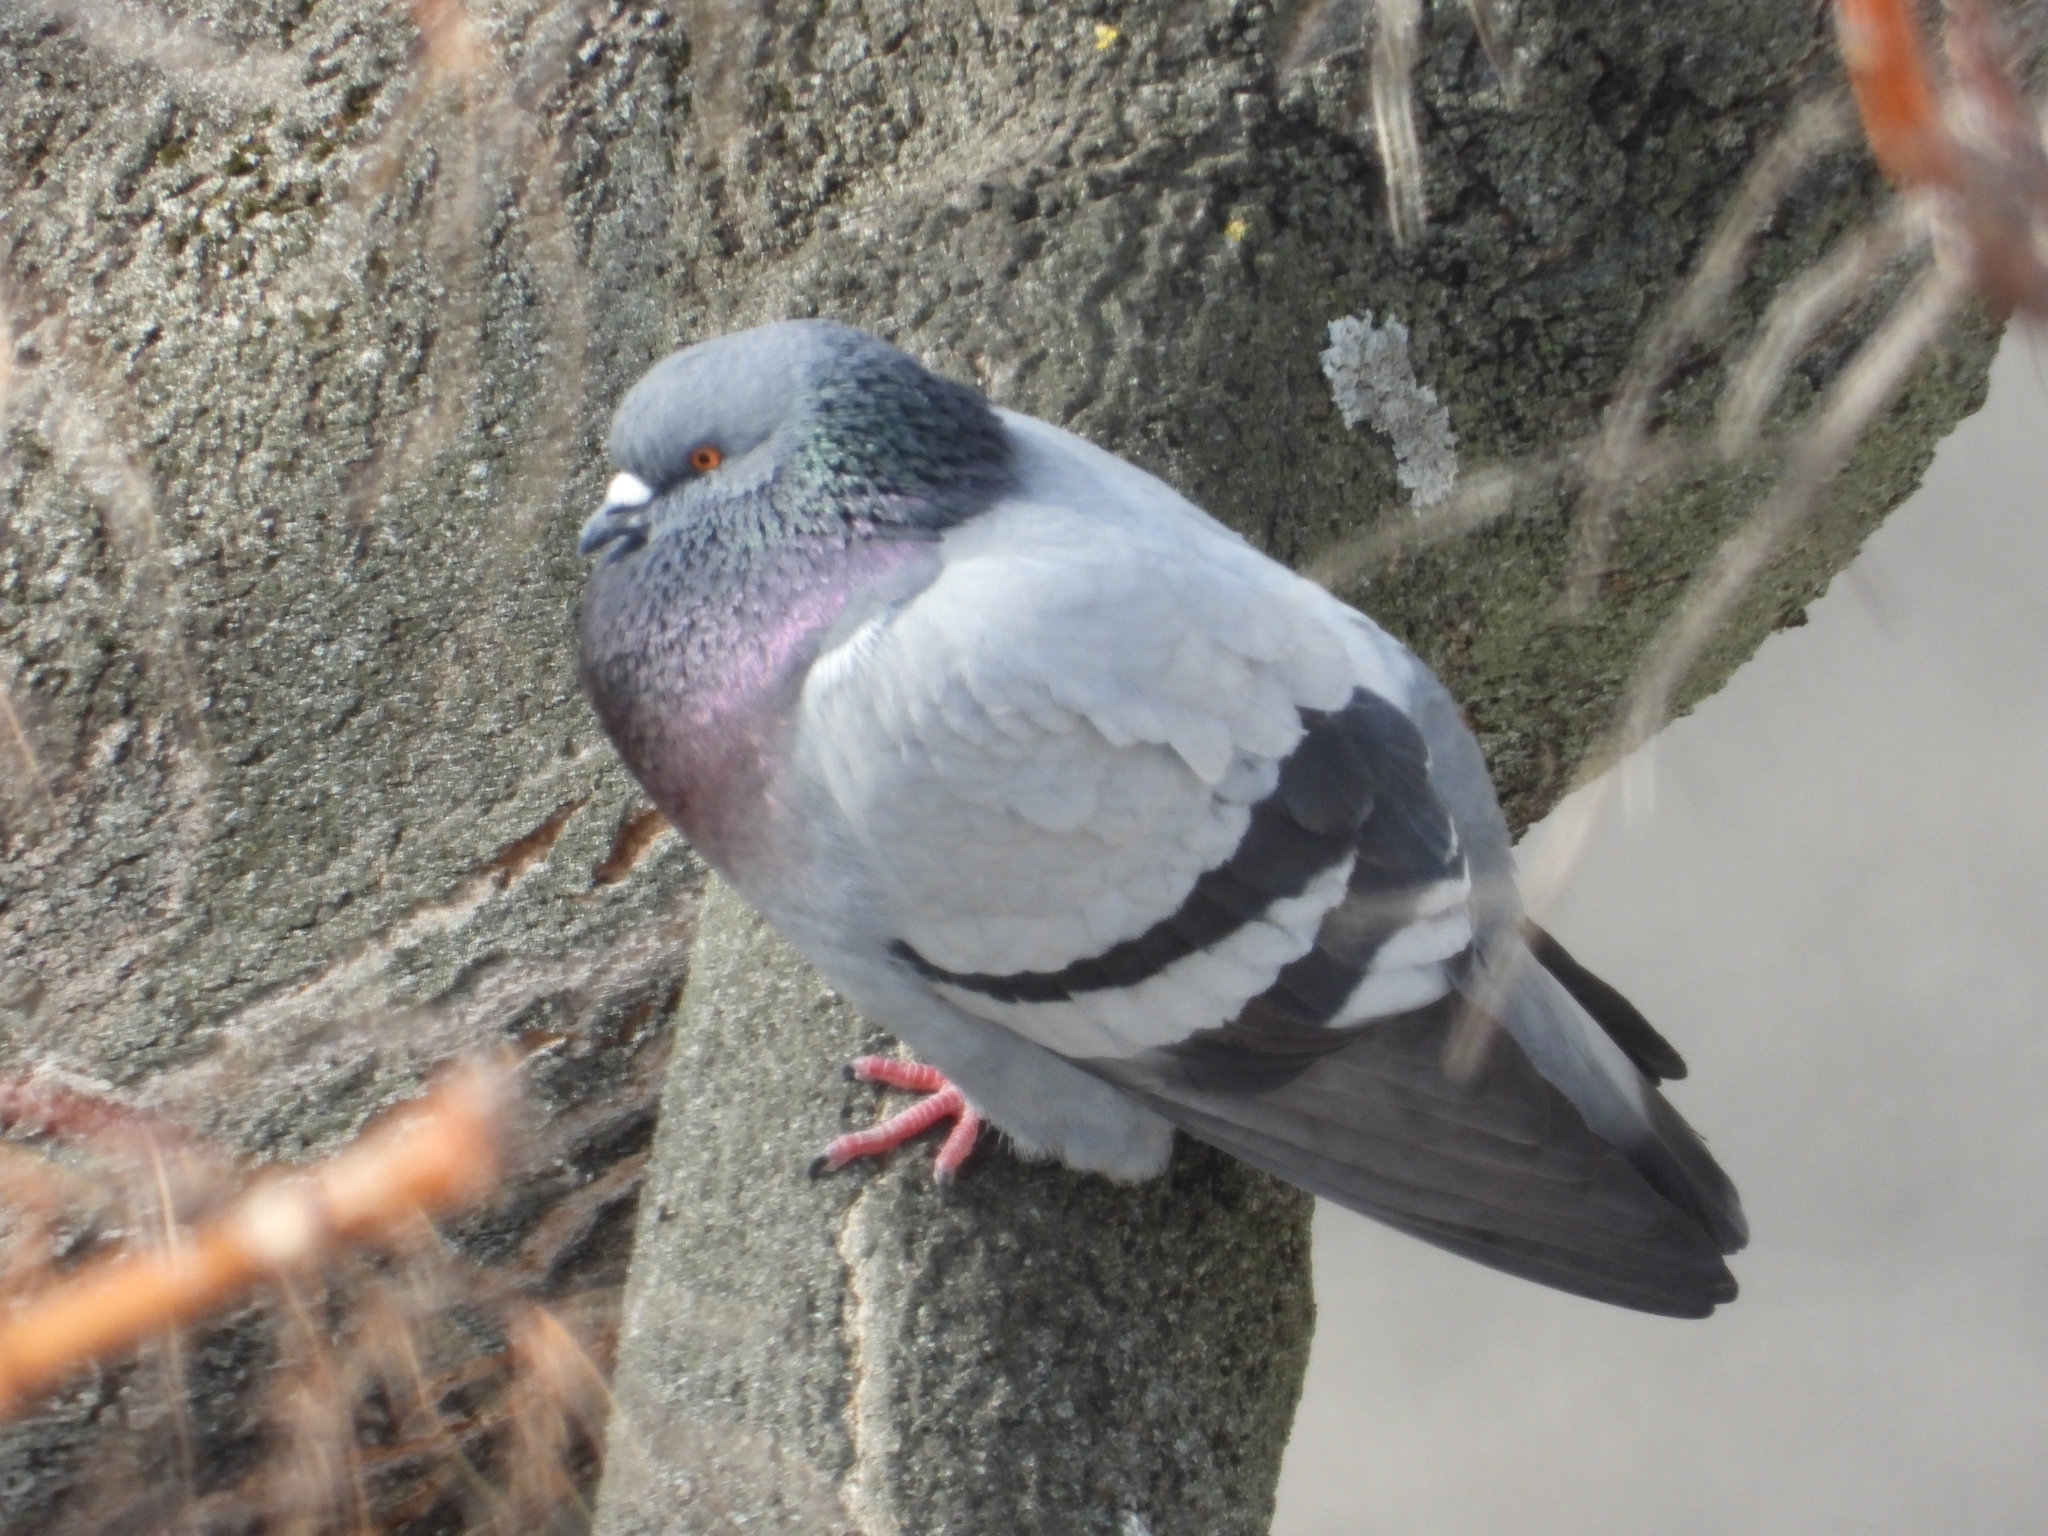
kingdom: Animalia
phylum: Chordata
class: Aves
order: Columbiformes
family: Columbidae
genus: Columba
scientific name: Columba livia
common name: Rock pigeon
